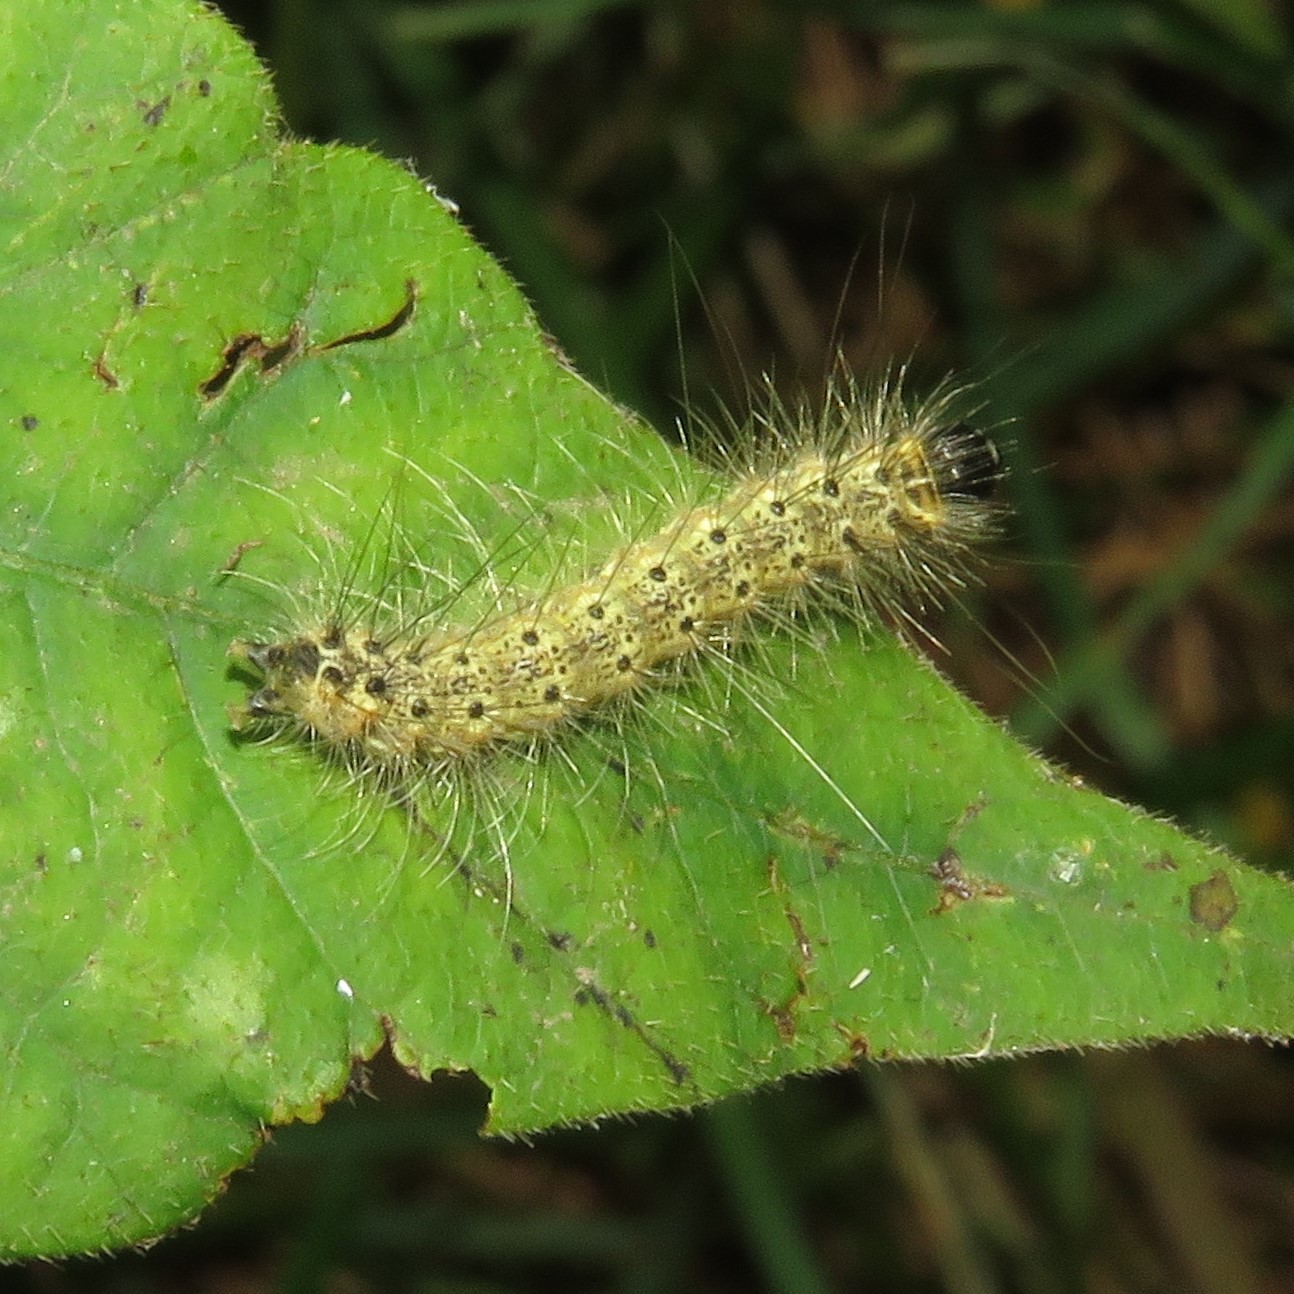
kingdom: Animalia
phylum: Arthropoda
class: Insecta
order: Lepidoptera
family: Erebidae
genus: Hyphantria
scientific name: Hyphantria cunea
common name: American white moth
